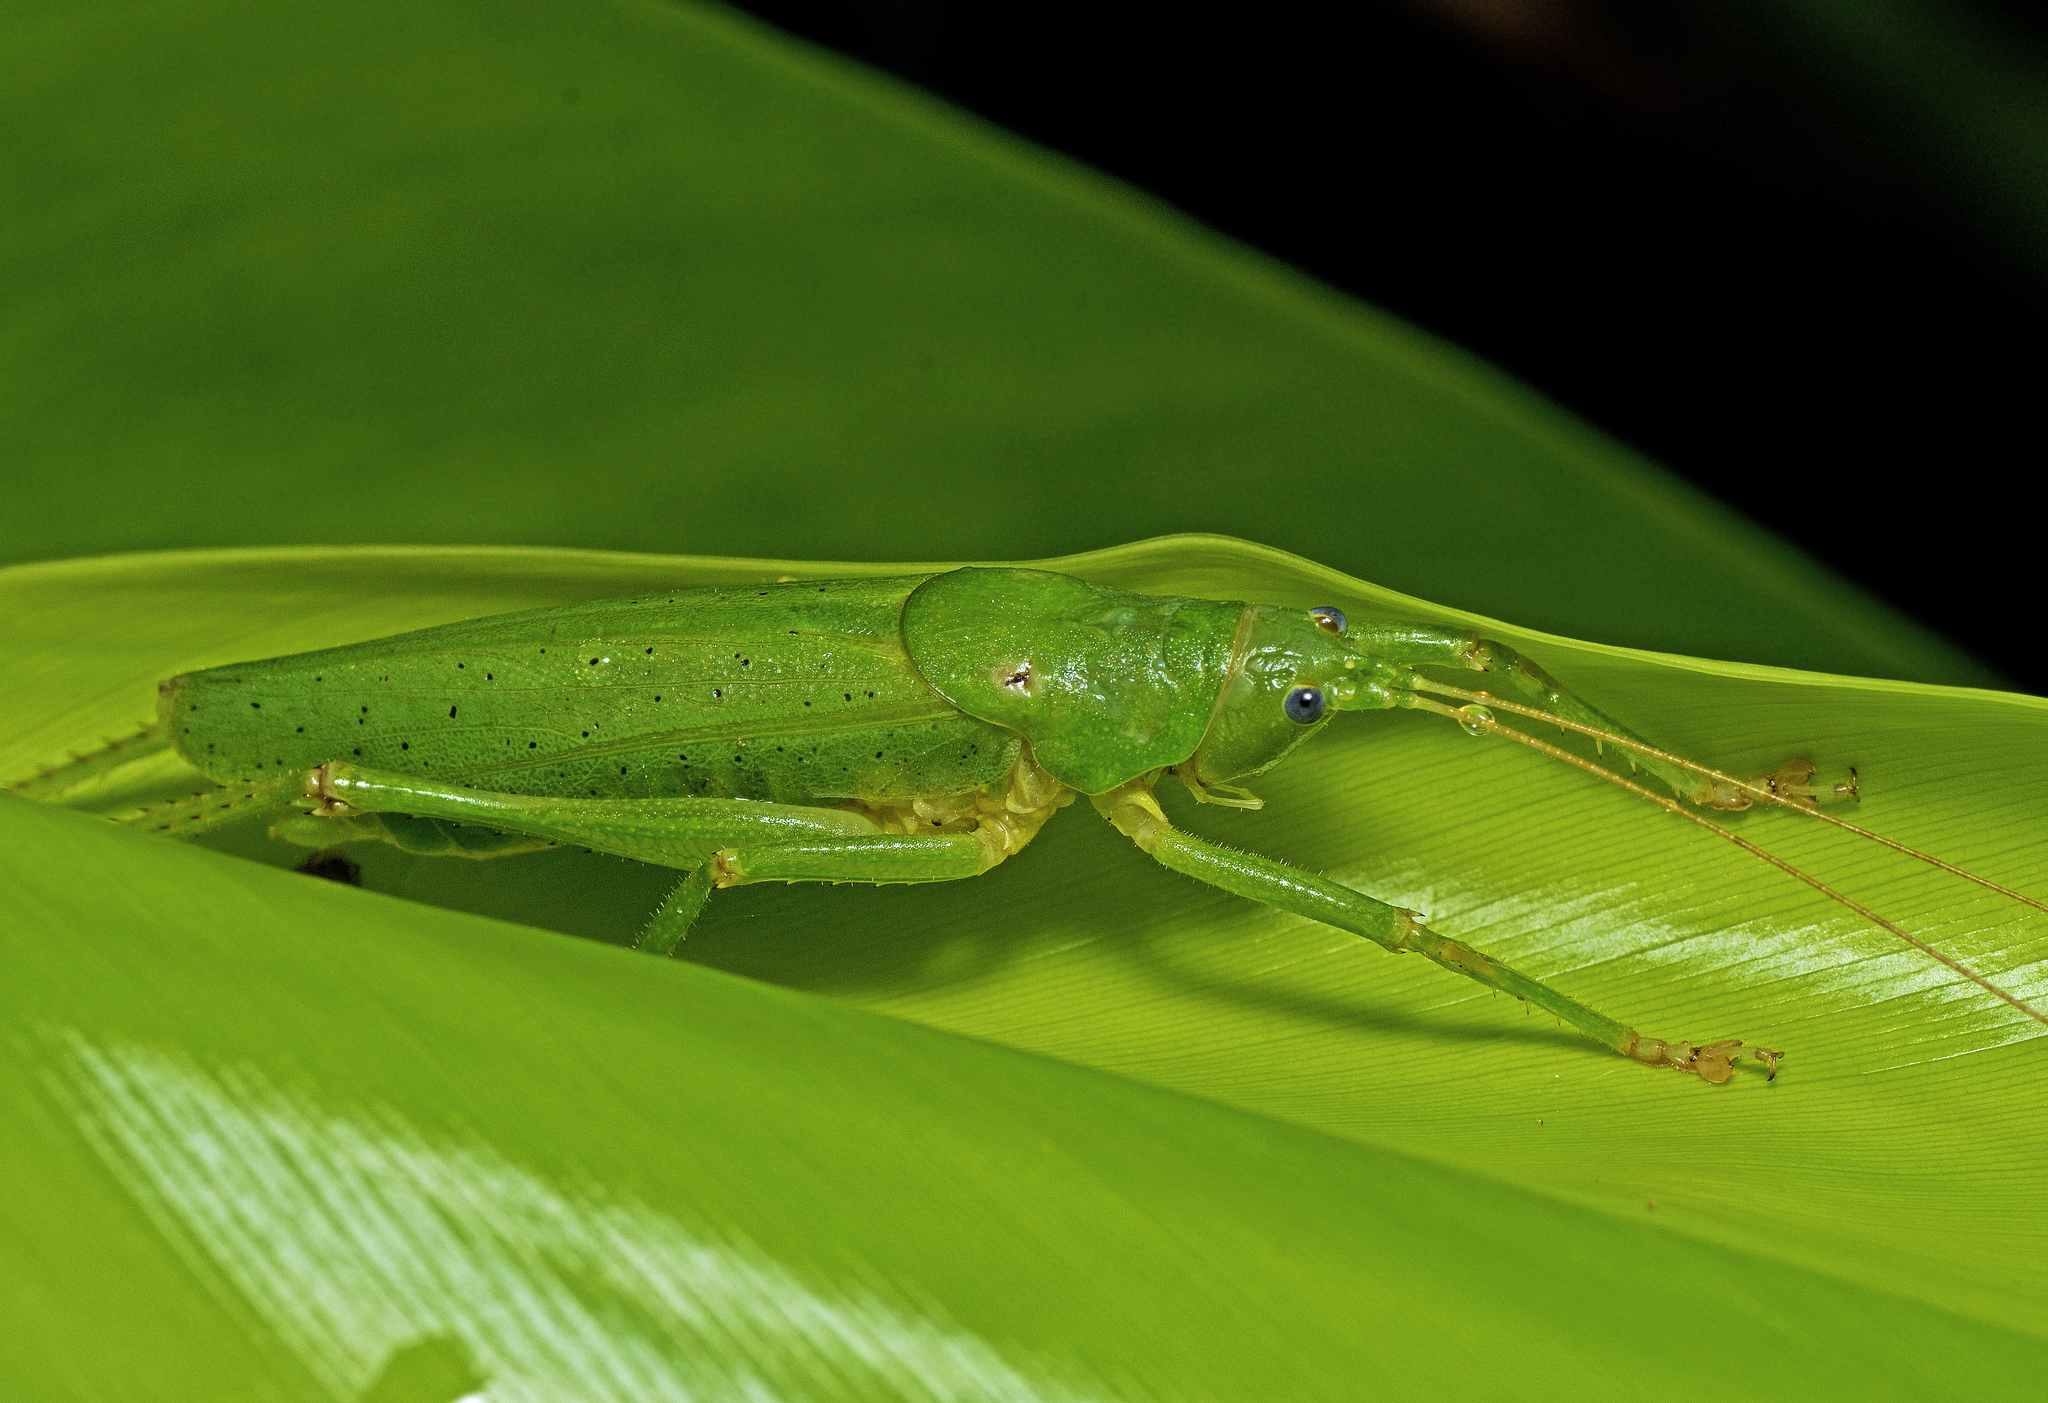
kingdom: Animalia
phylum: Arthropoda
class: Insecta
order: Orthoptera
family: Tettigoniidae
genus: Austrosalomona
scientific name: Austrosalomona destructor
